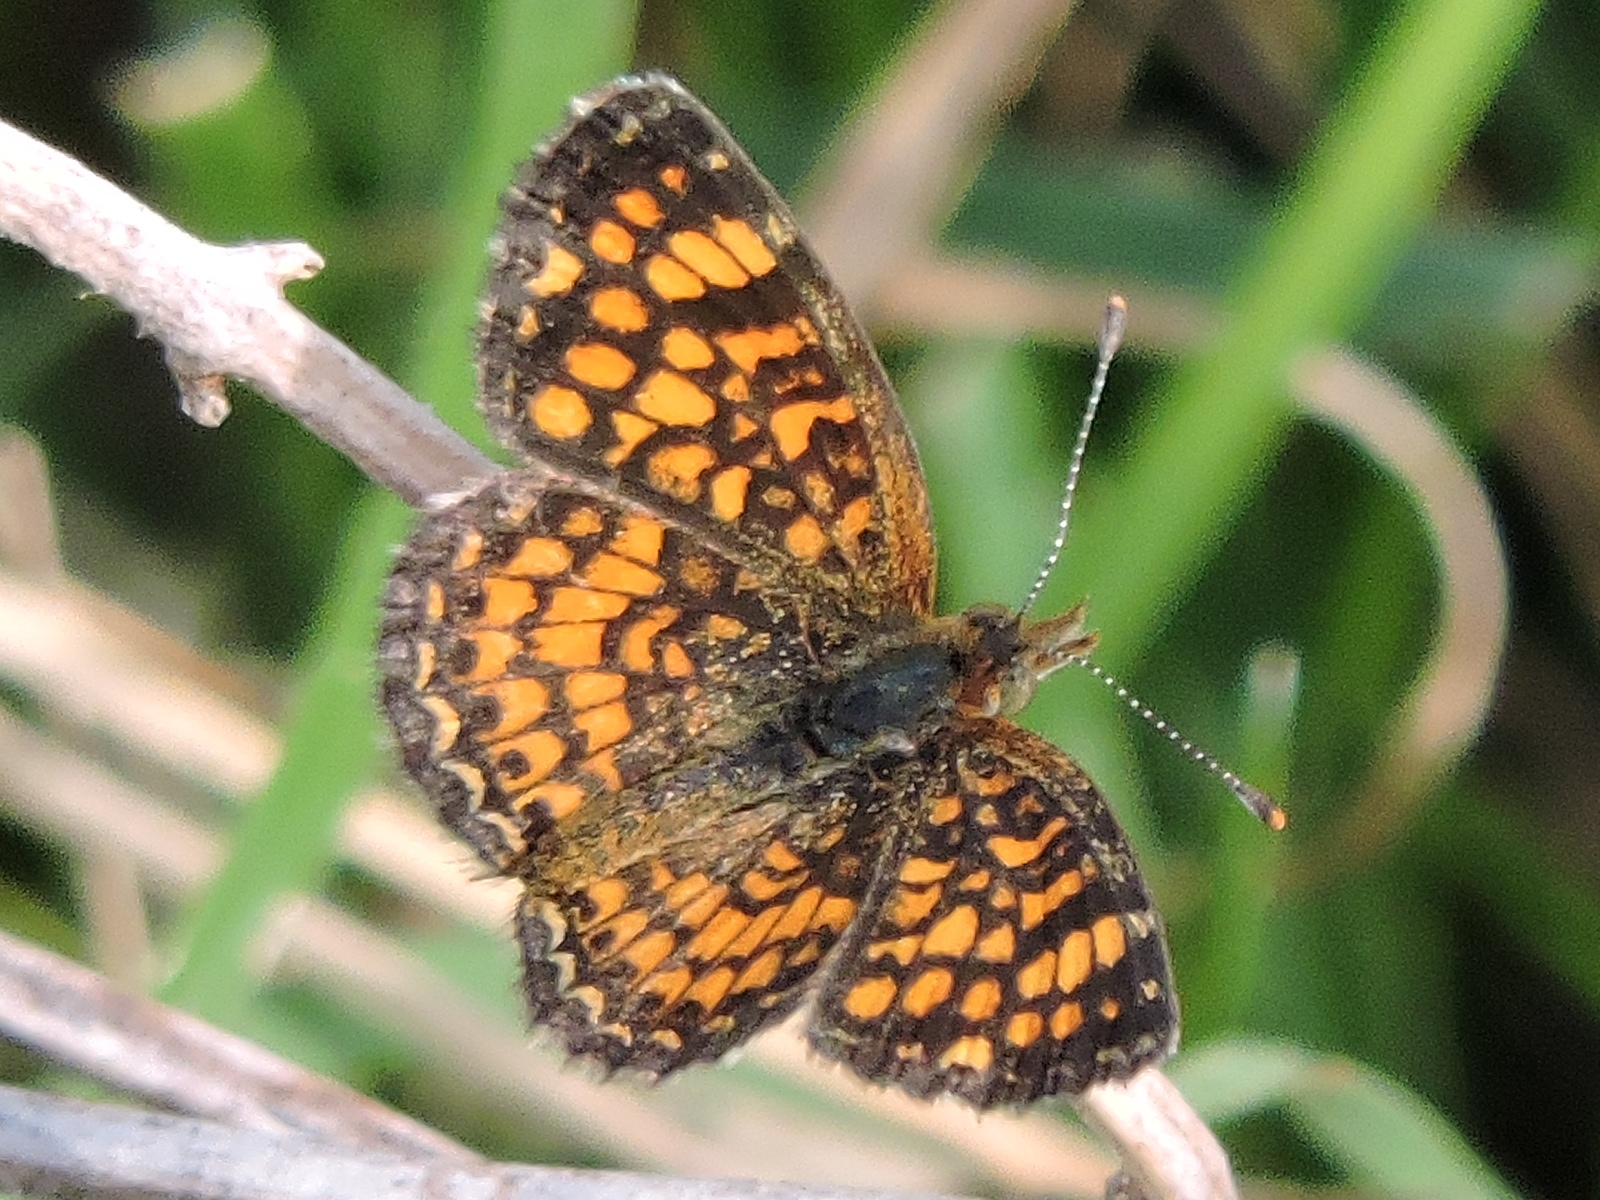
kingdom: Animalia
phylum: Arthropoda
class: Insecta
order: Lepidoptera
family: Nymphalidae
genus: Phyciodes
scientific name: Phyciodes vesta
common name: Vesta crescent
